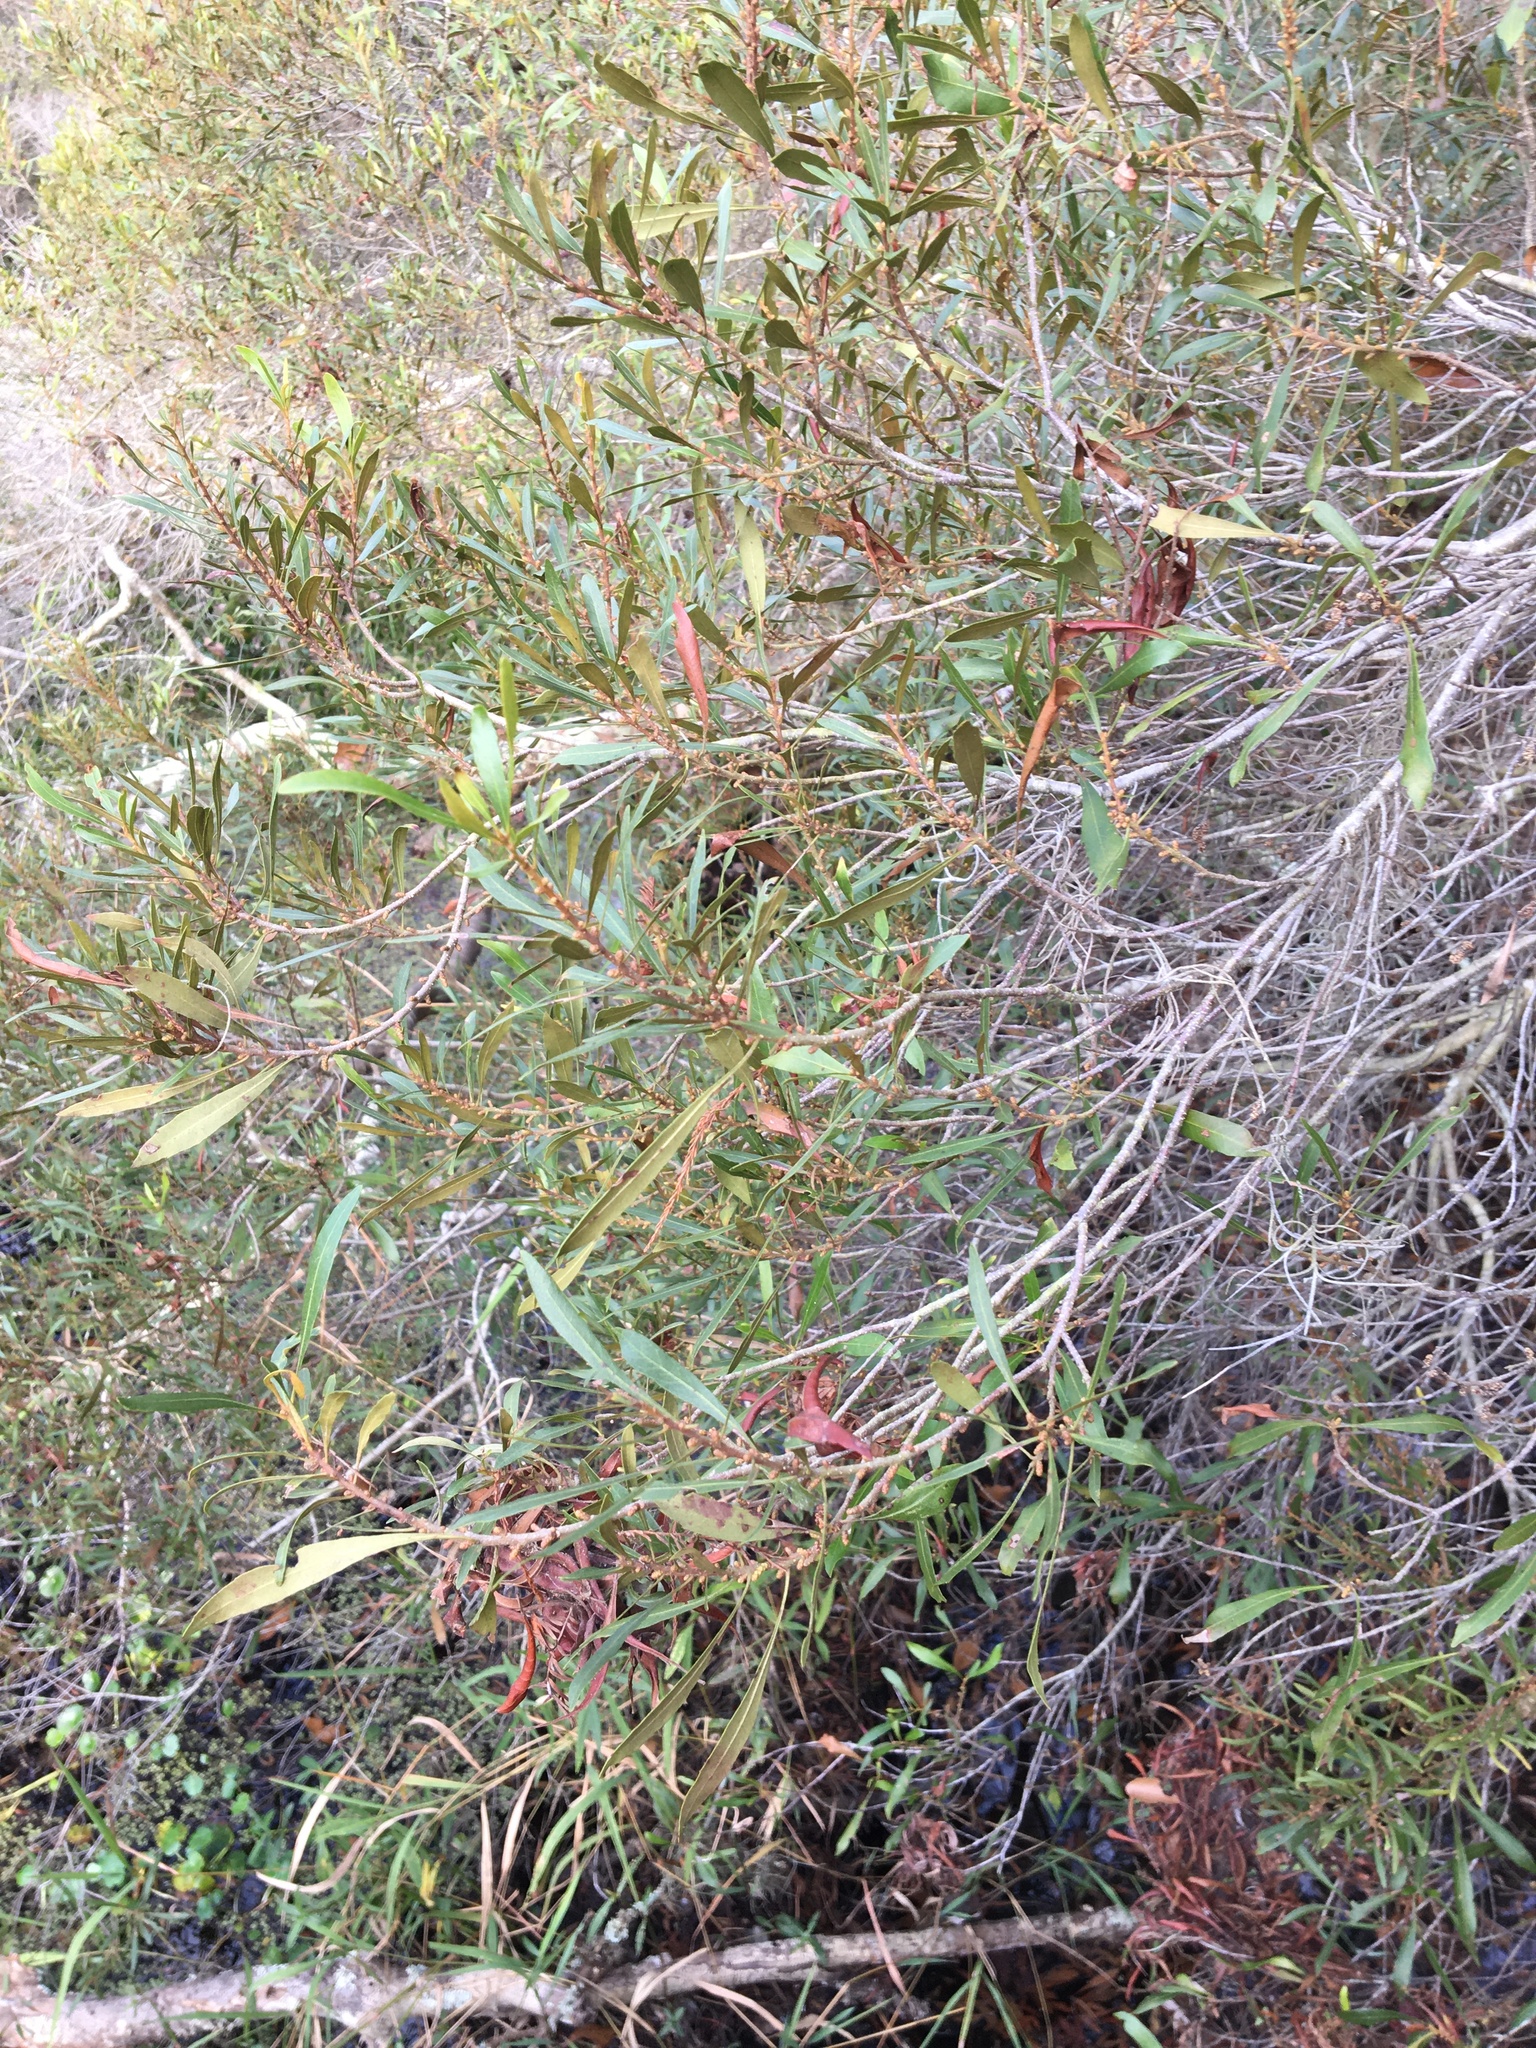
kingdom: Plantae
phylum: Tracheophyta
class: Magnoliopsida
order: Fagales
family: Myricaceae
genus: Morella
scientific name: Morella cerifera
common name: Wax myrtle
